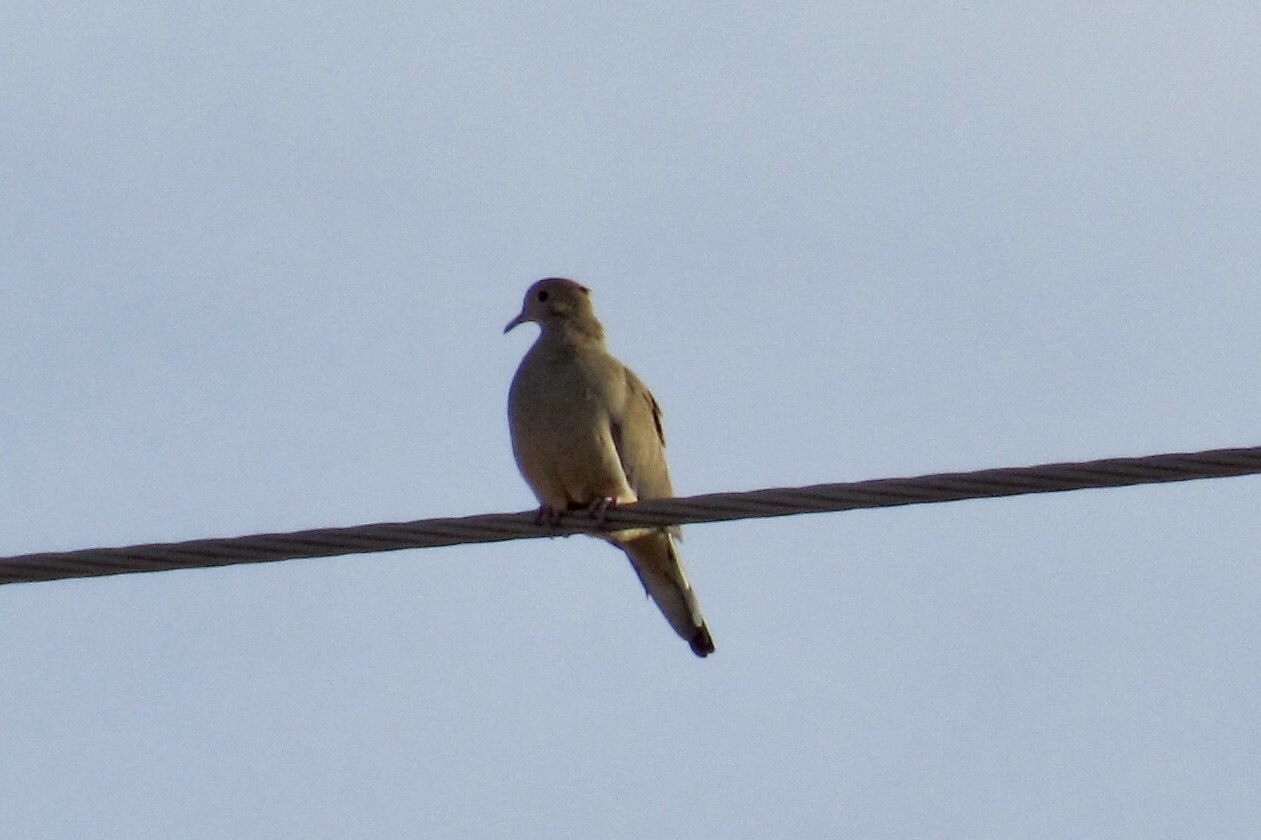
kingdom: Animalia
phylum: Chordata
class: Aves
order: Columbiformes
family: Columbidae
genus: Zenaida
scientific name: Zenaida macroura
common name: Mourning dove
